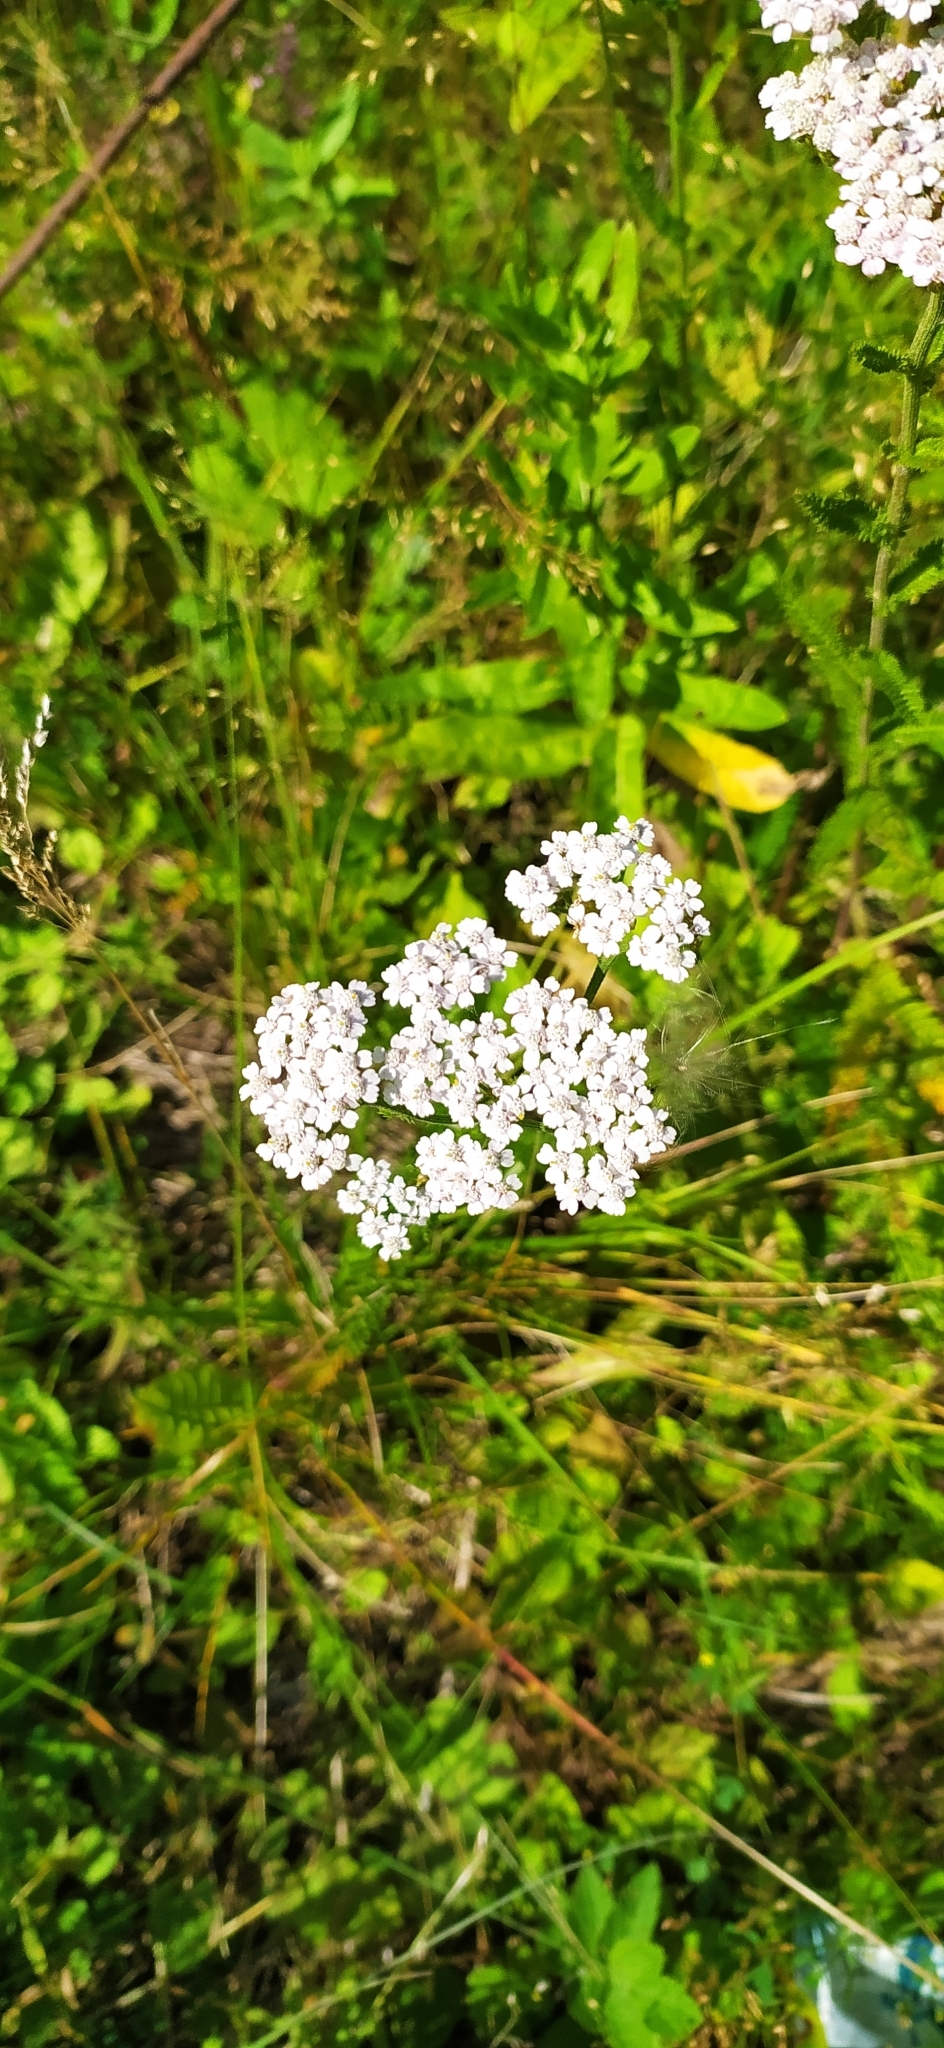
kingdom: Plantae
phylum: Tracheophyta
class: Magnoliopsida
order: Asterales
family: Asteraceae
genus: Achillea
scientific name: Achillea millefolium
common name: Yarrow
